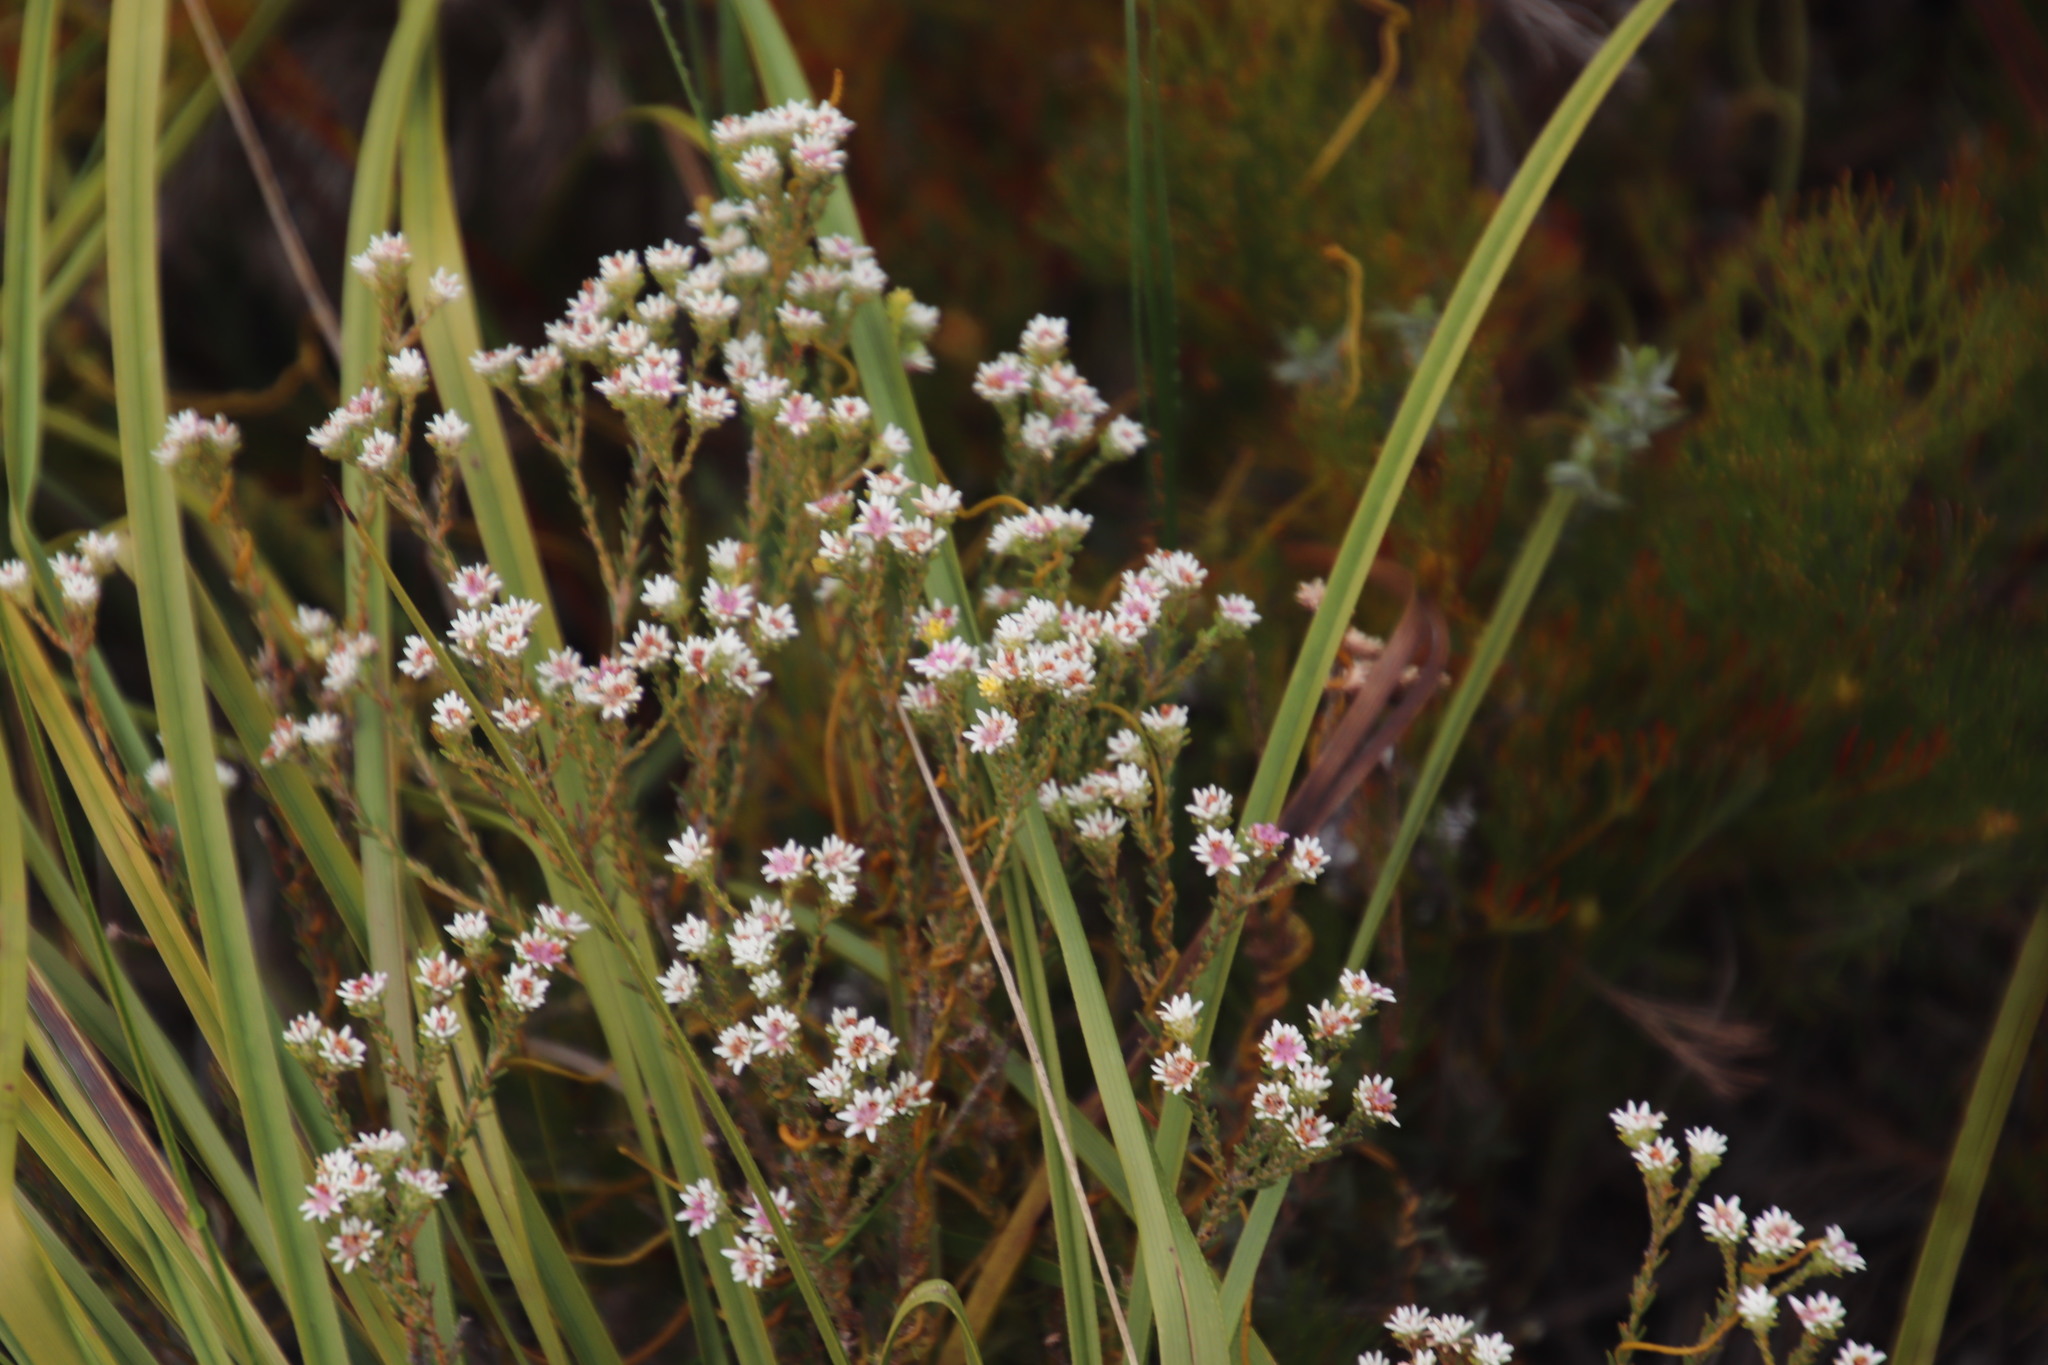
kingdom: Plantae
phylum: Tracheophyta
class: Magnoliopsida
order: Bruniales
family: Bruniaceae
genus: Staavia
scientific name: Staavia radiata
